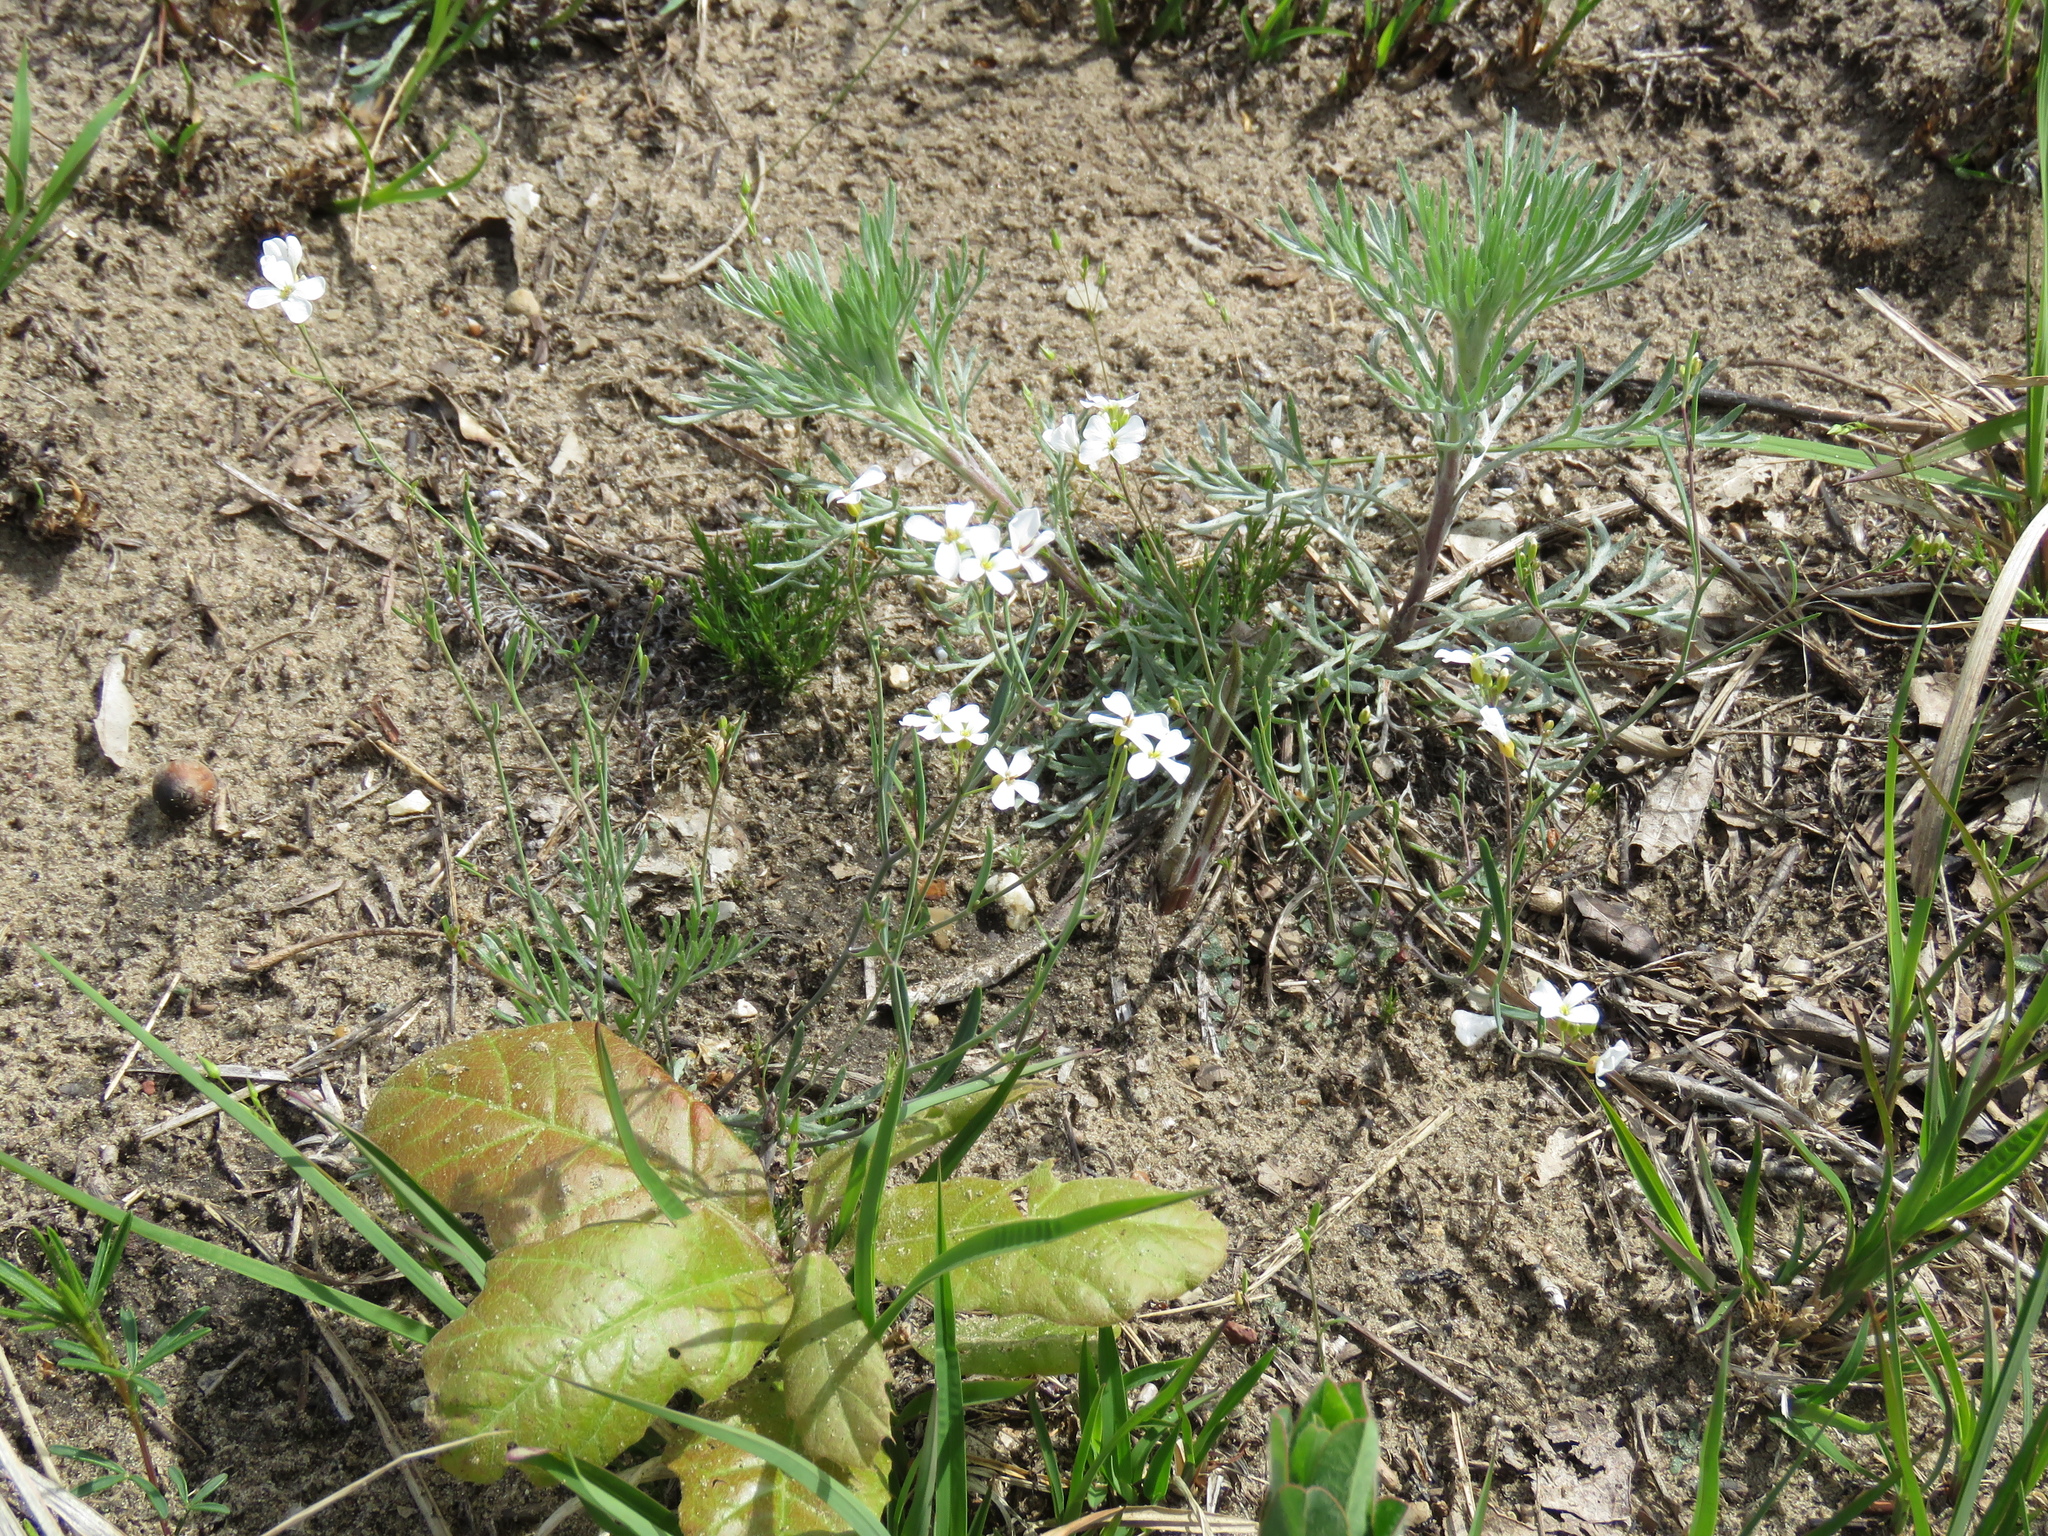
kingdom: Plantae
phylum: Tracheophyta
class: Magnoliopsida
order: Brassicales
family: Brassicaceae
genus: Arabidopsis
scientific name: Arabidopsis lyrata
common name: Lyrate rockcress
